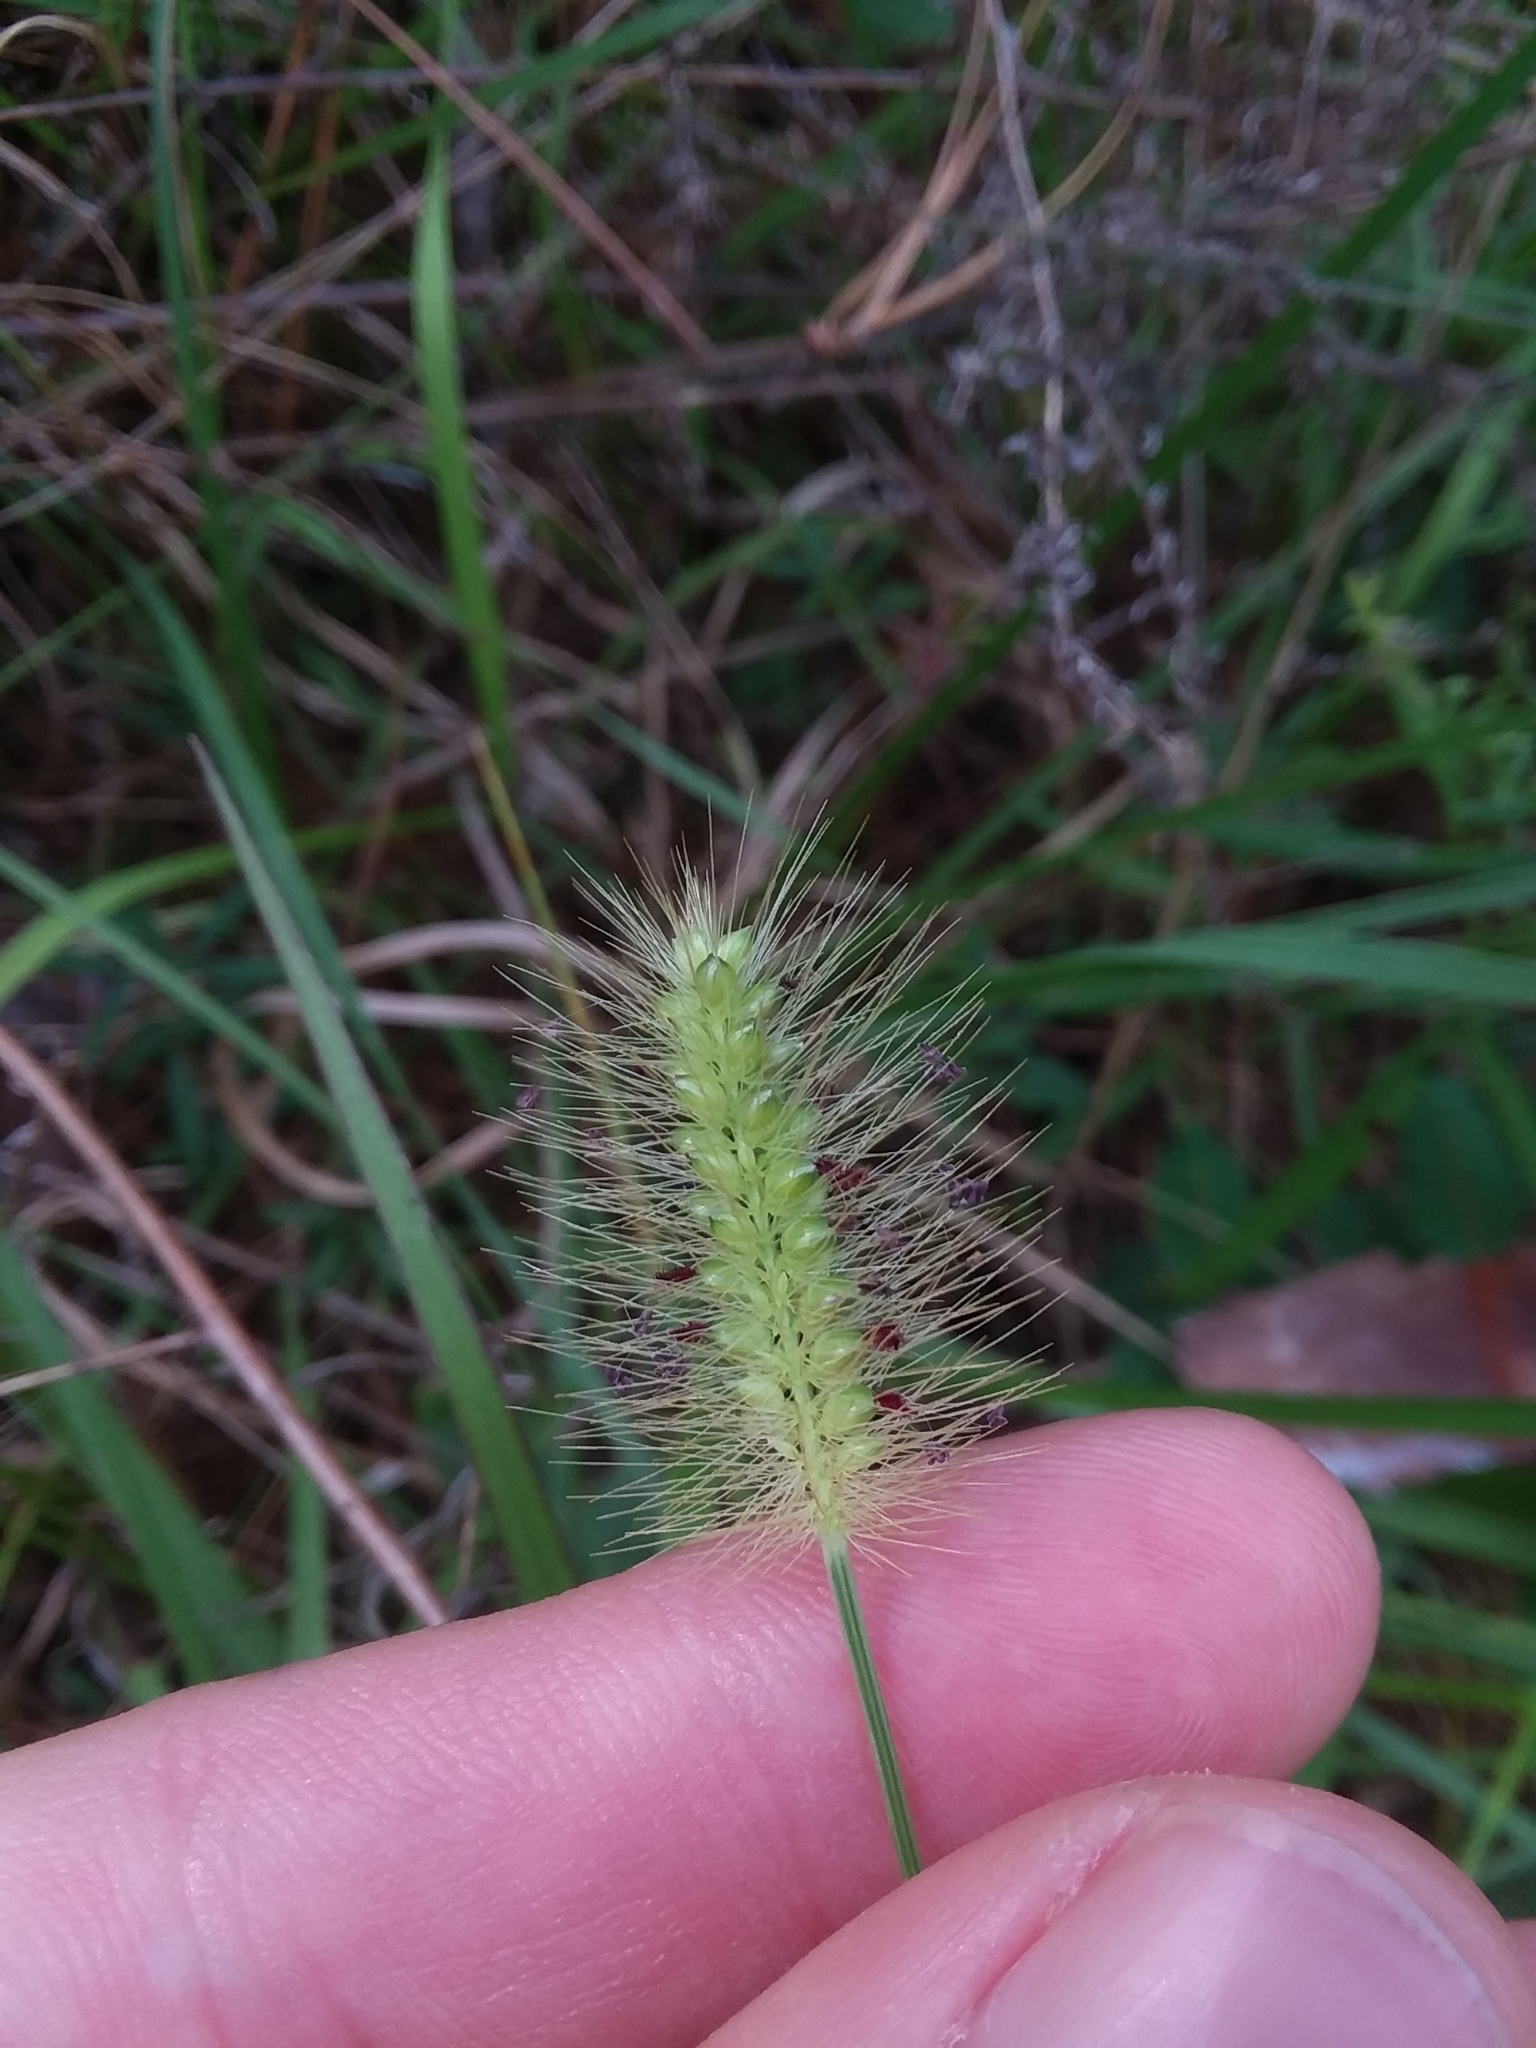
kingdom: Plantae
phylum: Tracheophyta
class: Liliopsida
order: Poales
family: Poaceae
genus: Setaria
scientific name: Setaria parviflora
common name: Knotroot bristle-grass
